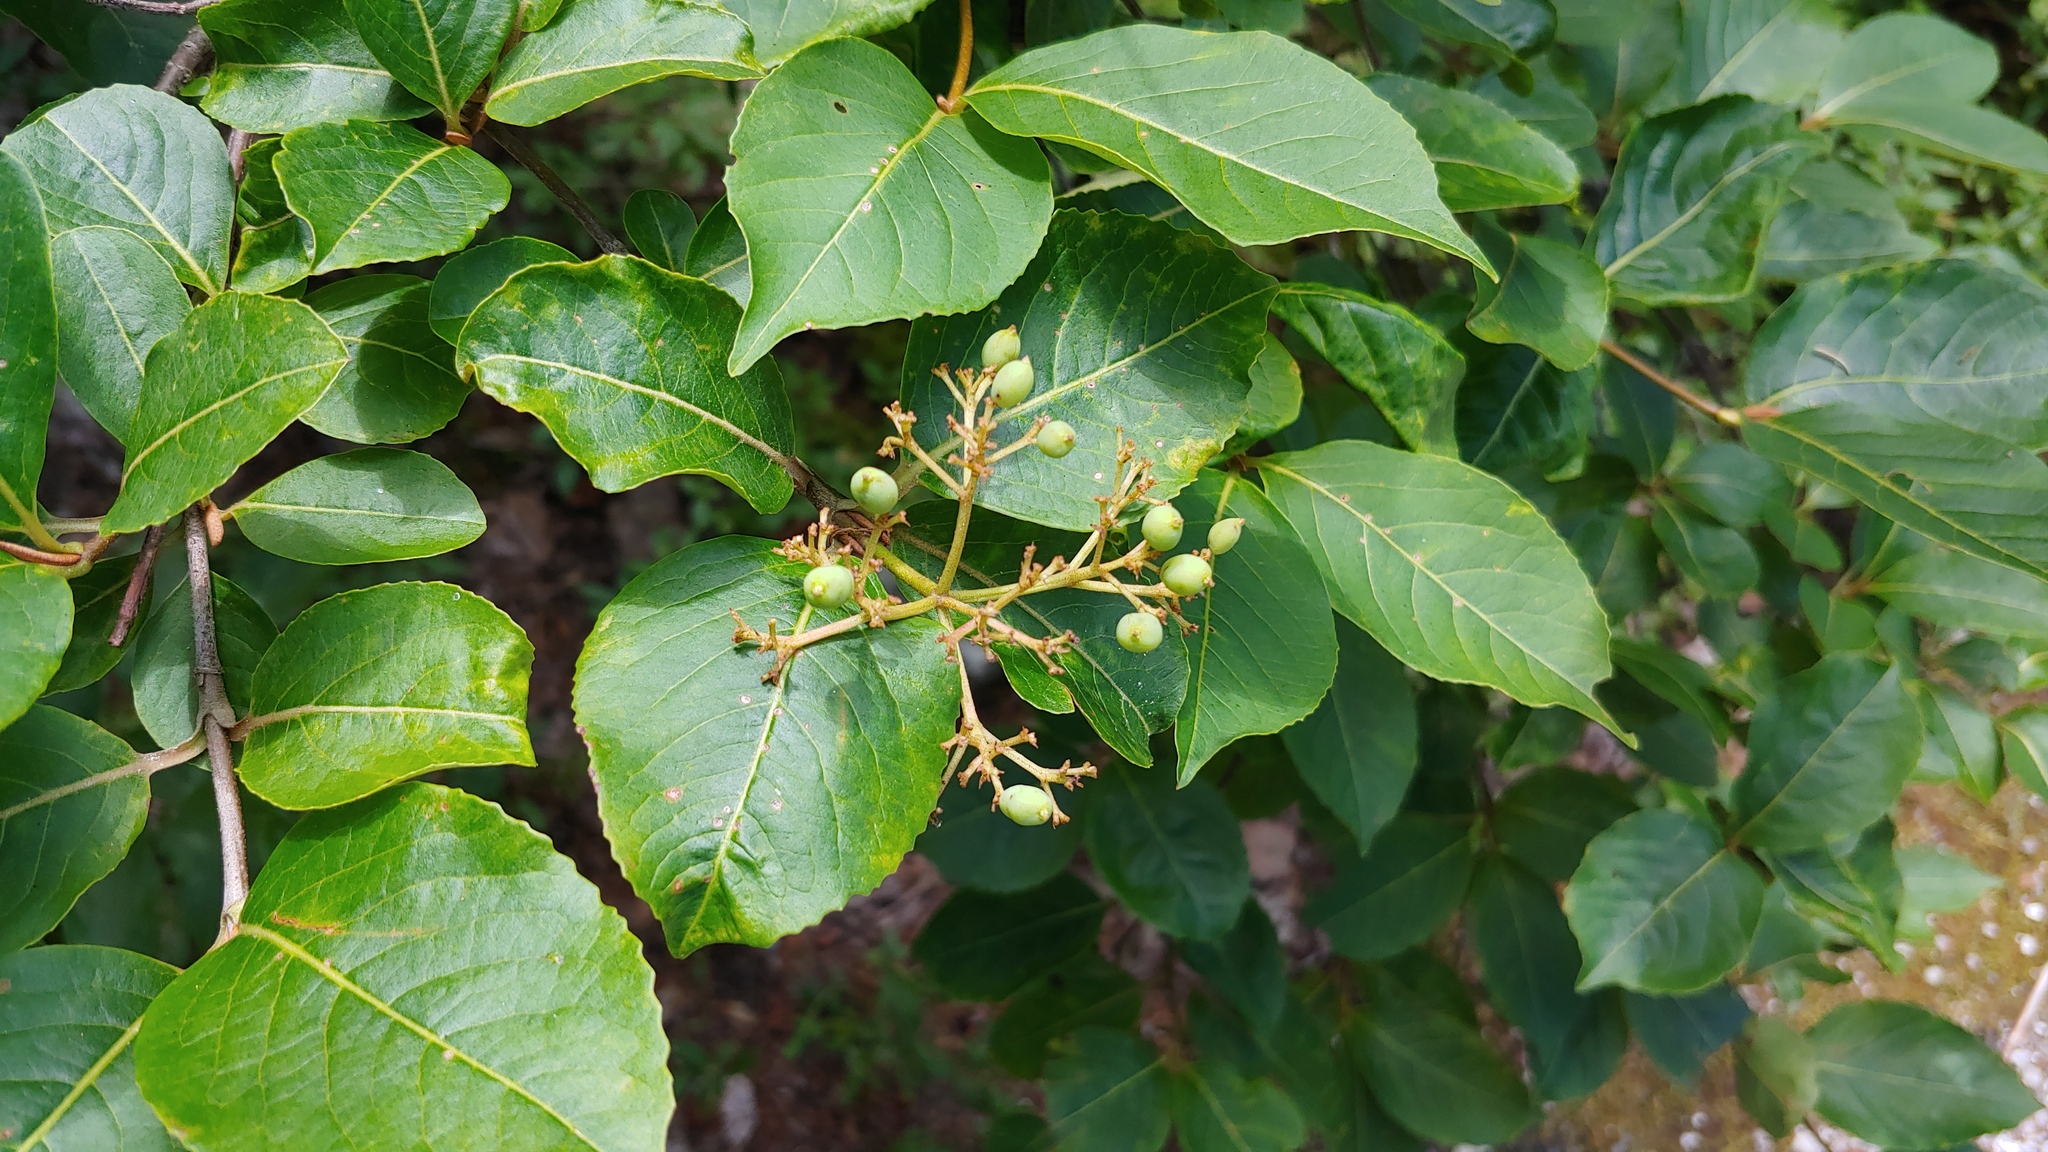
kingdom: Plantae
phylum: Tracheophyta
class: Magnoliopsida
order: Dipsacales
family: Viburnaceae
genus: Viburnum
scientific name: Viburnum cassinoides
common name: Swamp haw
